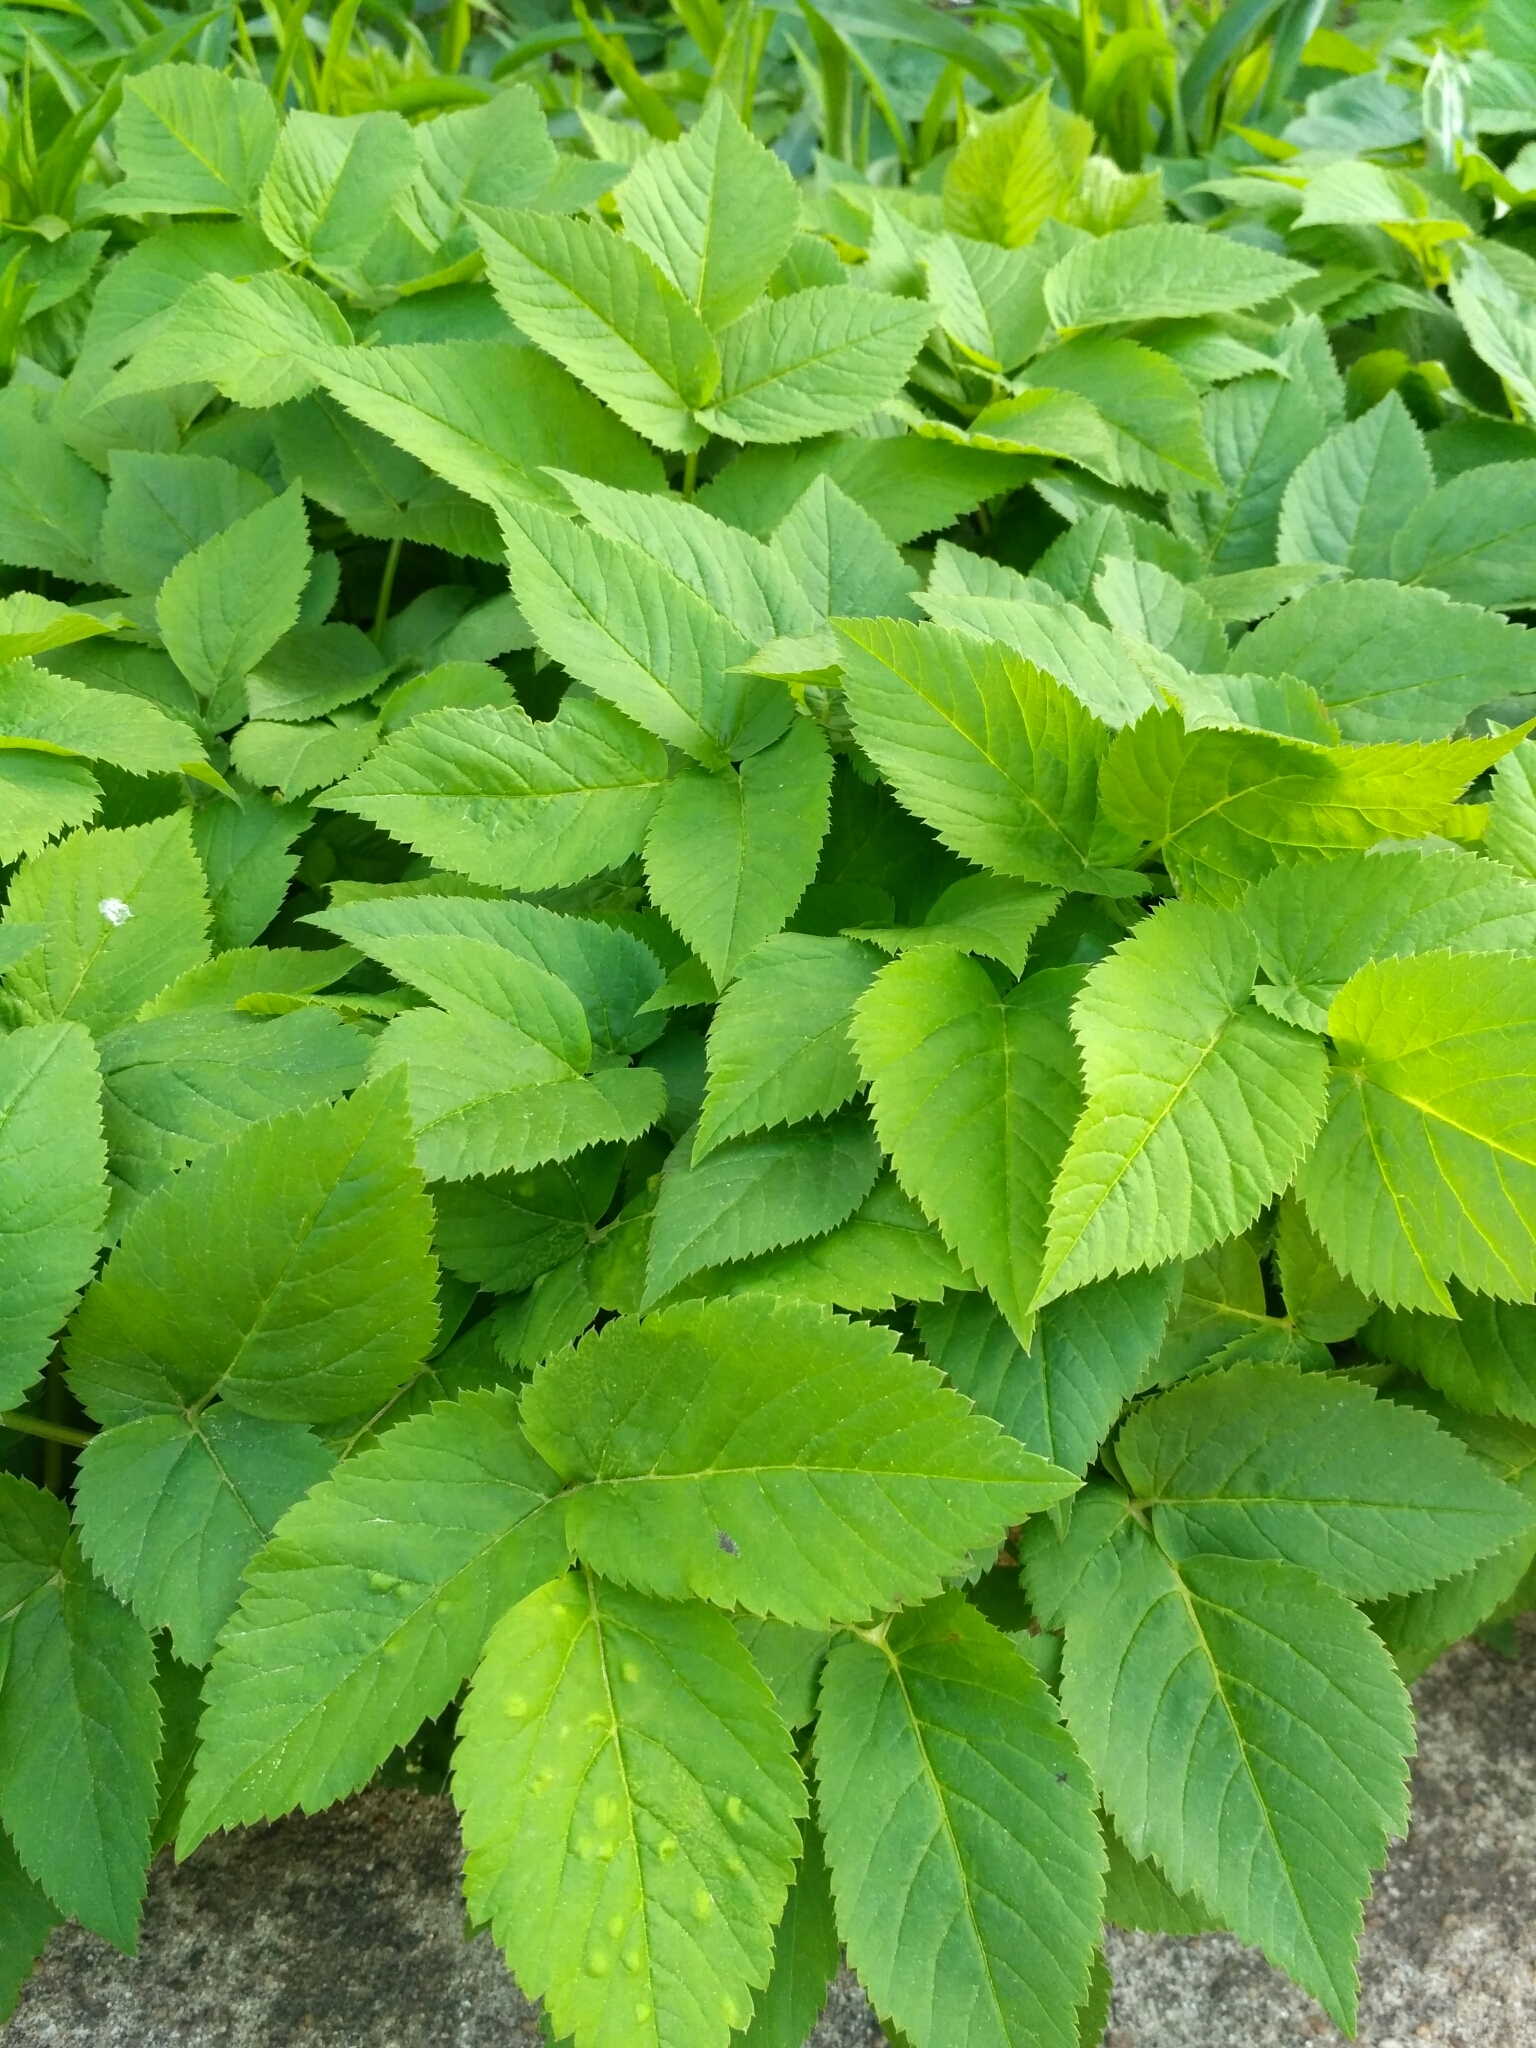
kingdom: Plantae
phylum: Tracheophyta
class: Magnoliopsida
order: Apiales
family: Apiaceae
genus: Aegopodium
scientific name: Aegopodium podagraria
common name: Ground-elder
